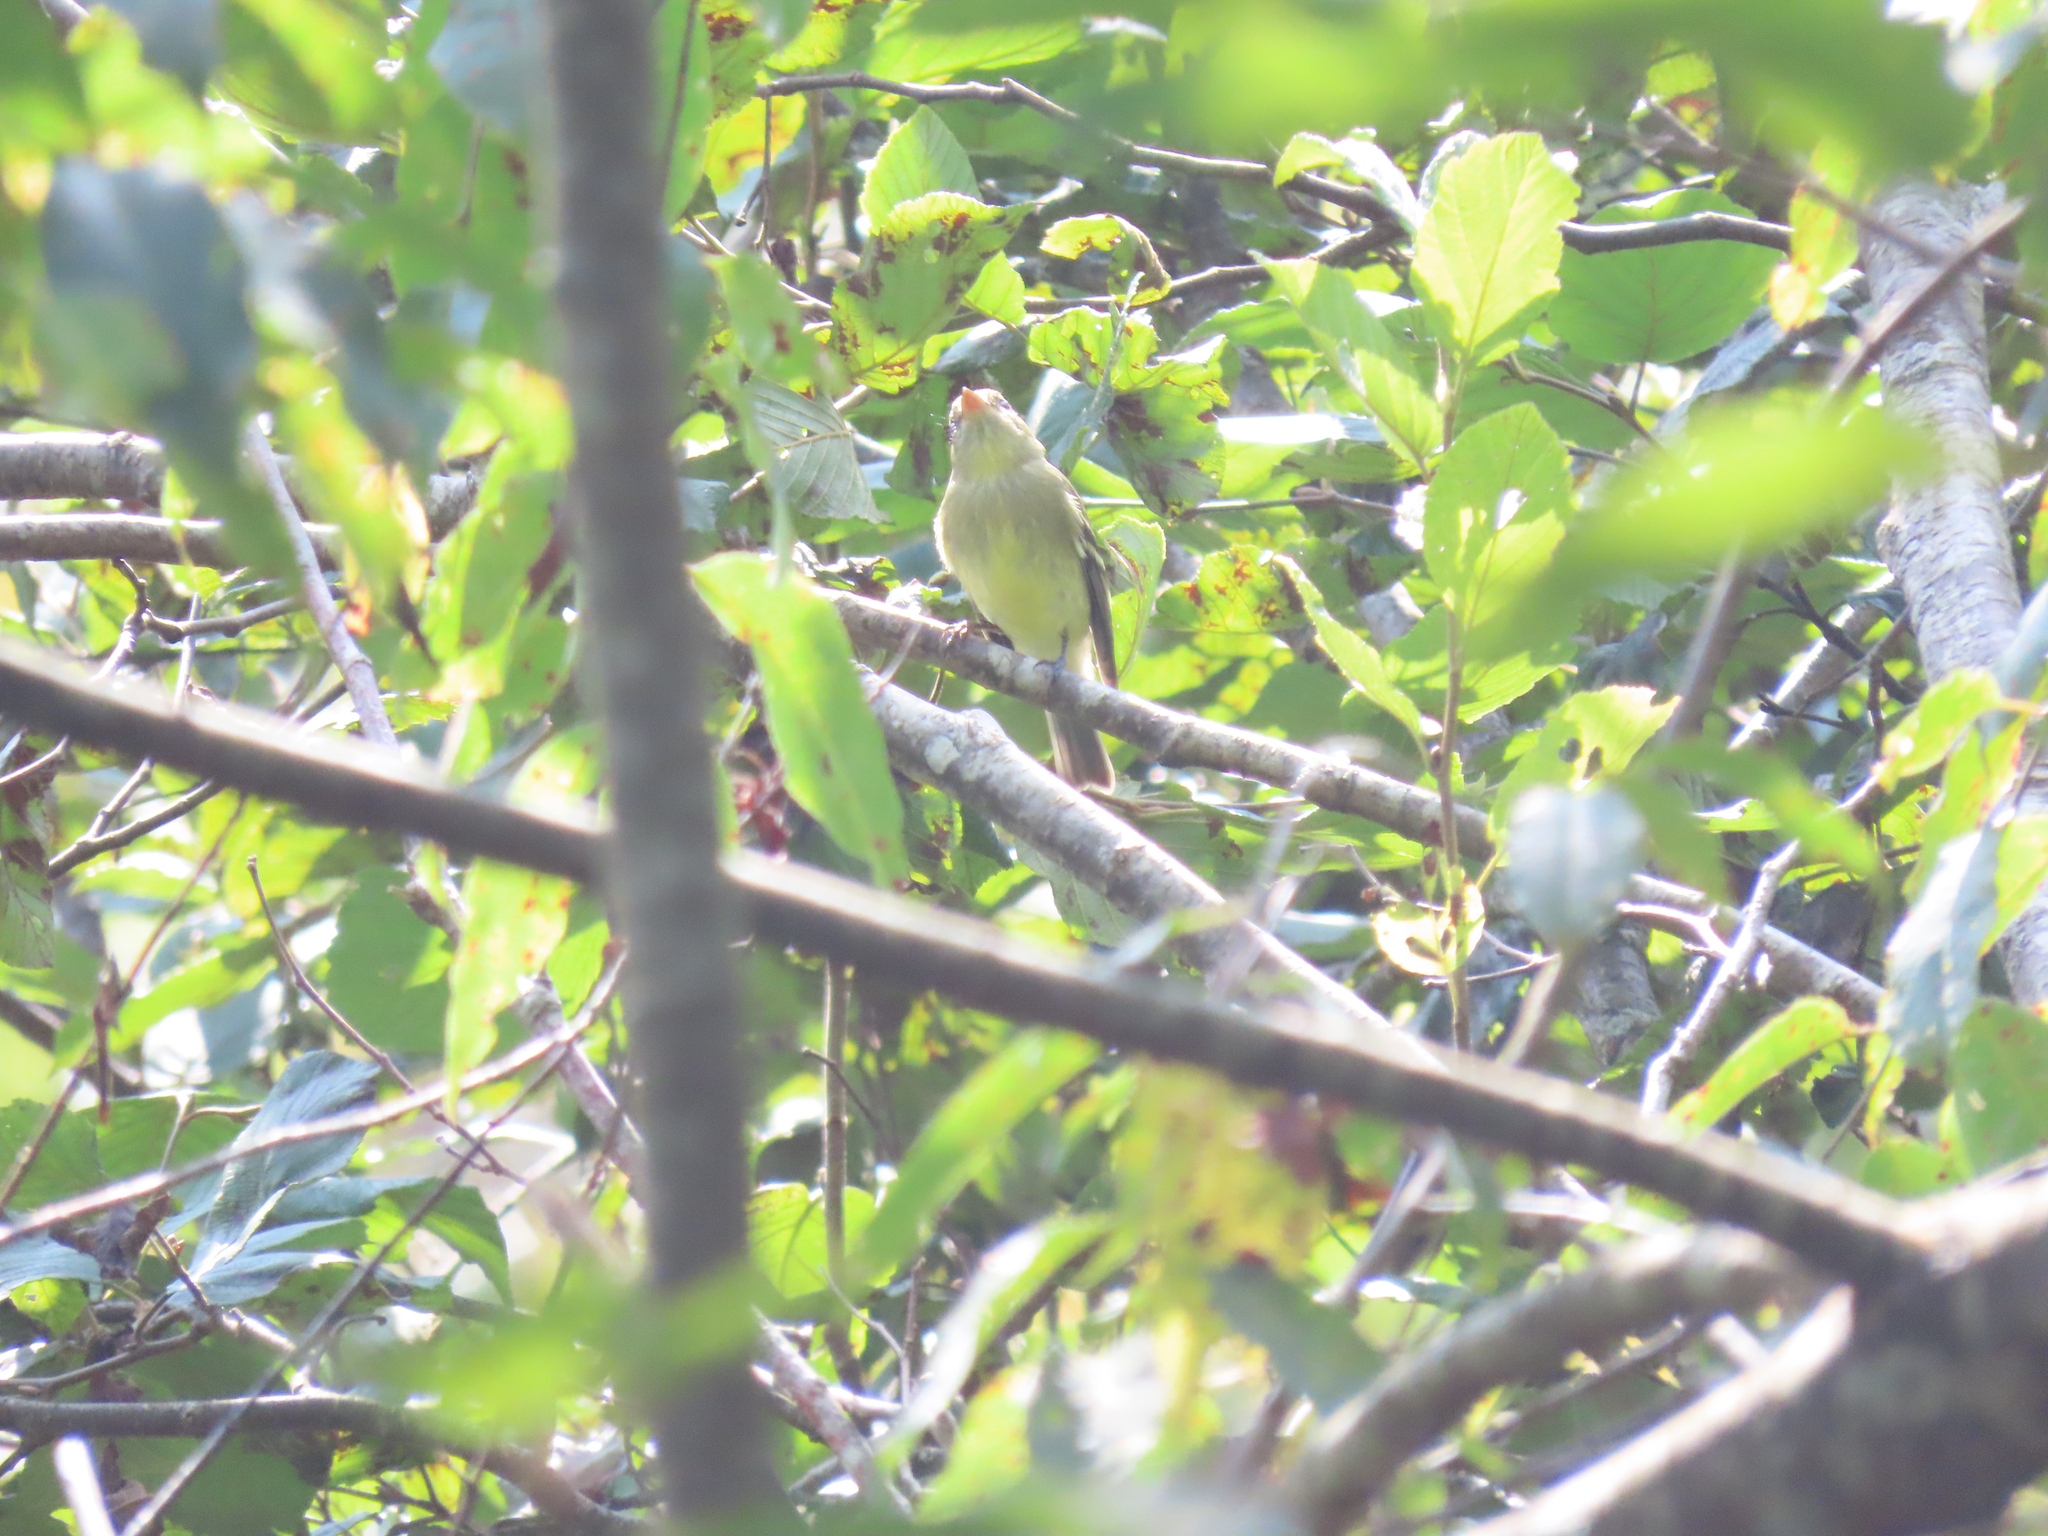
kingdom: Animalia
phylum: Chordata
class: Aves
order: Passeriformes
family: Tyrannidae
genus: Empidonax
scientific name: Empidonax flaviventris
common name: Yellow-bellied flycatcher
